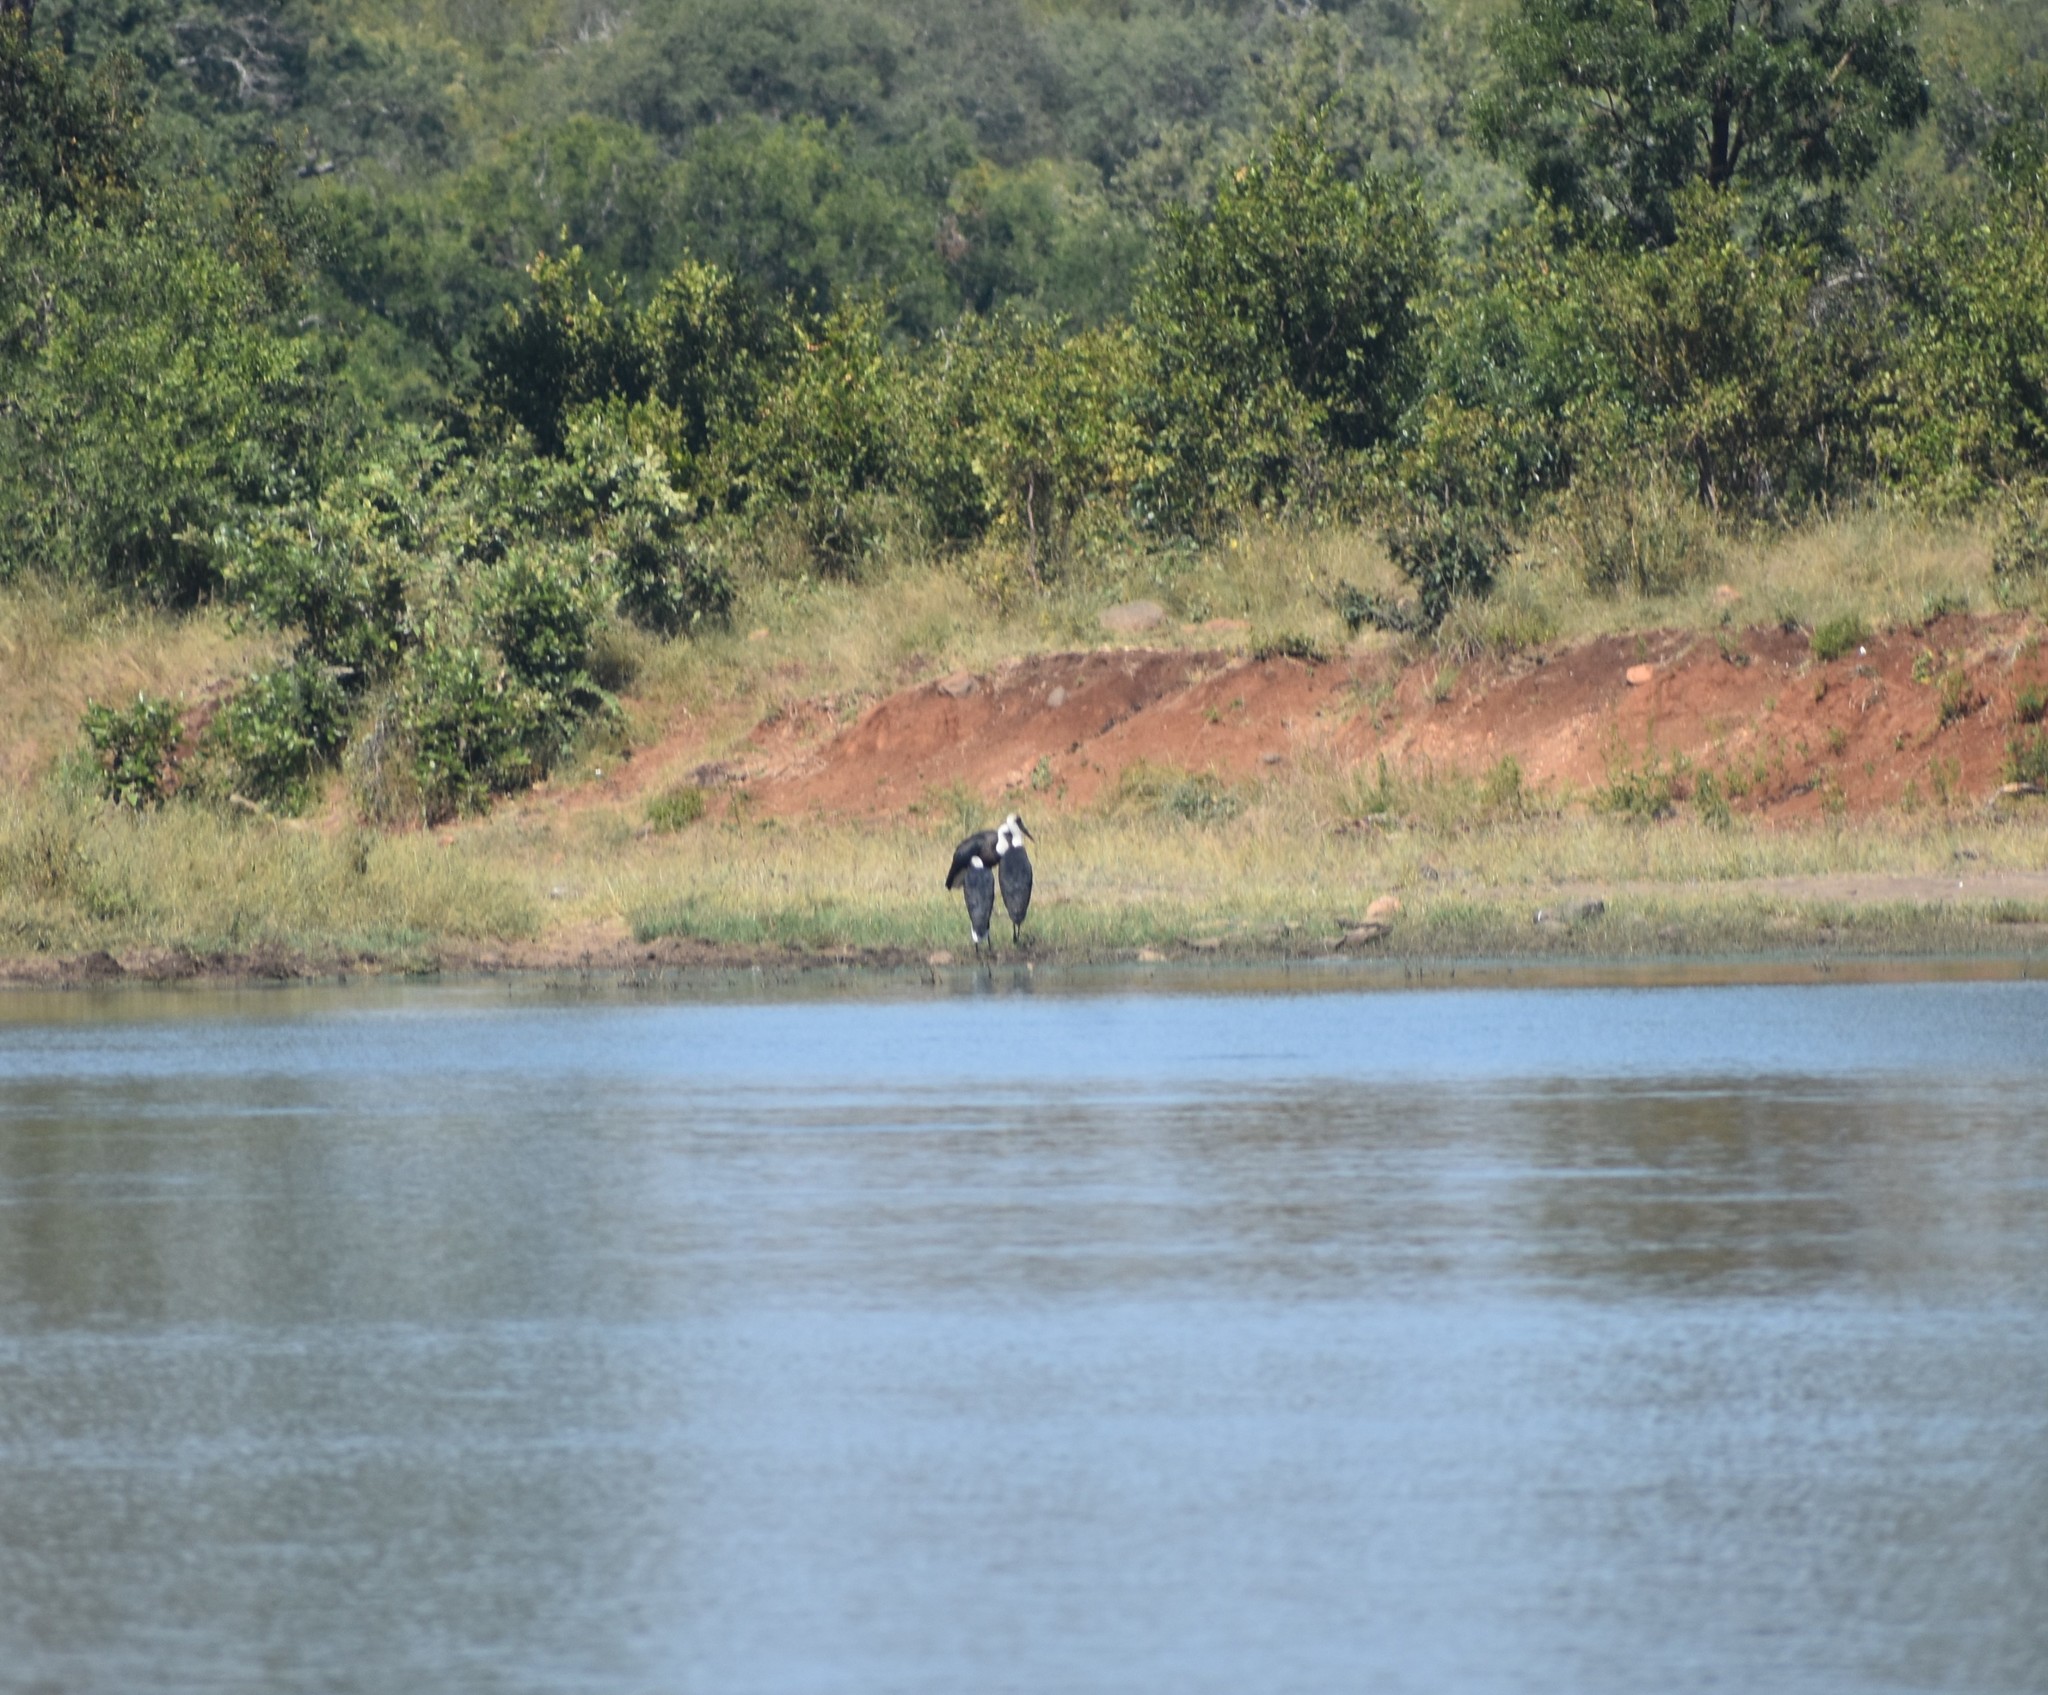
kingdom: Animalia
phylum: Chordata
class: Aves
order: Ciconiiformes
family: Ciconiidae
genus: Ciconia
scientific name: Ciconia microscelis
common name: African woollyneck
